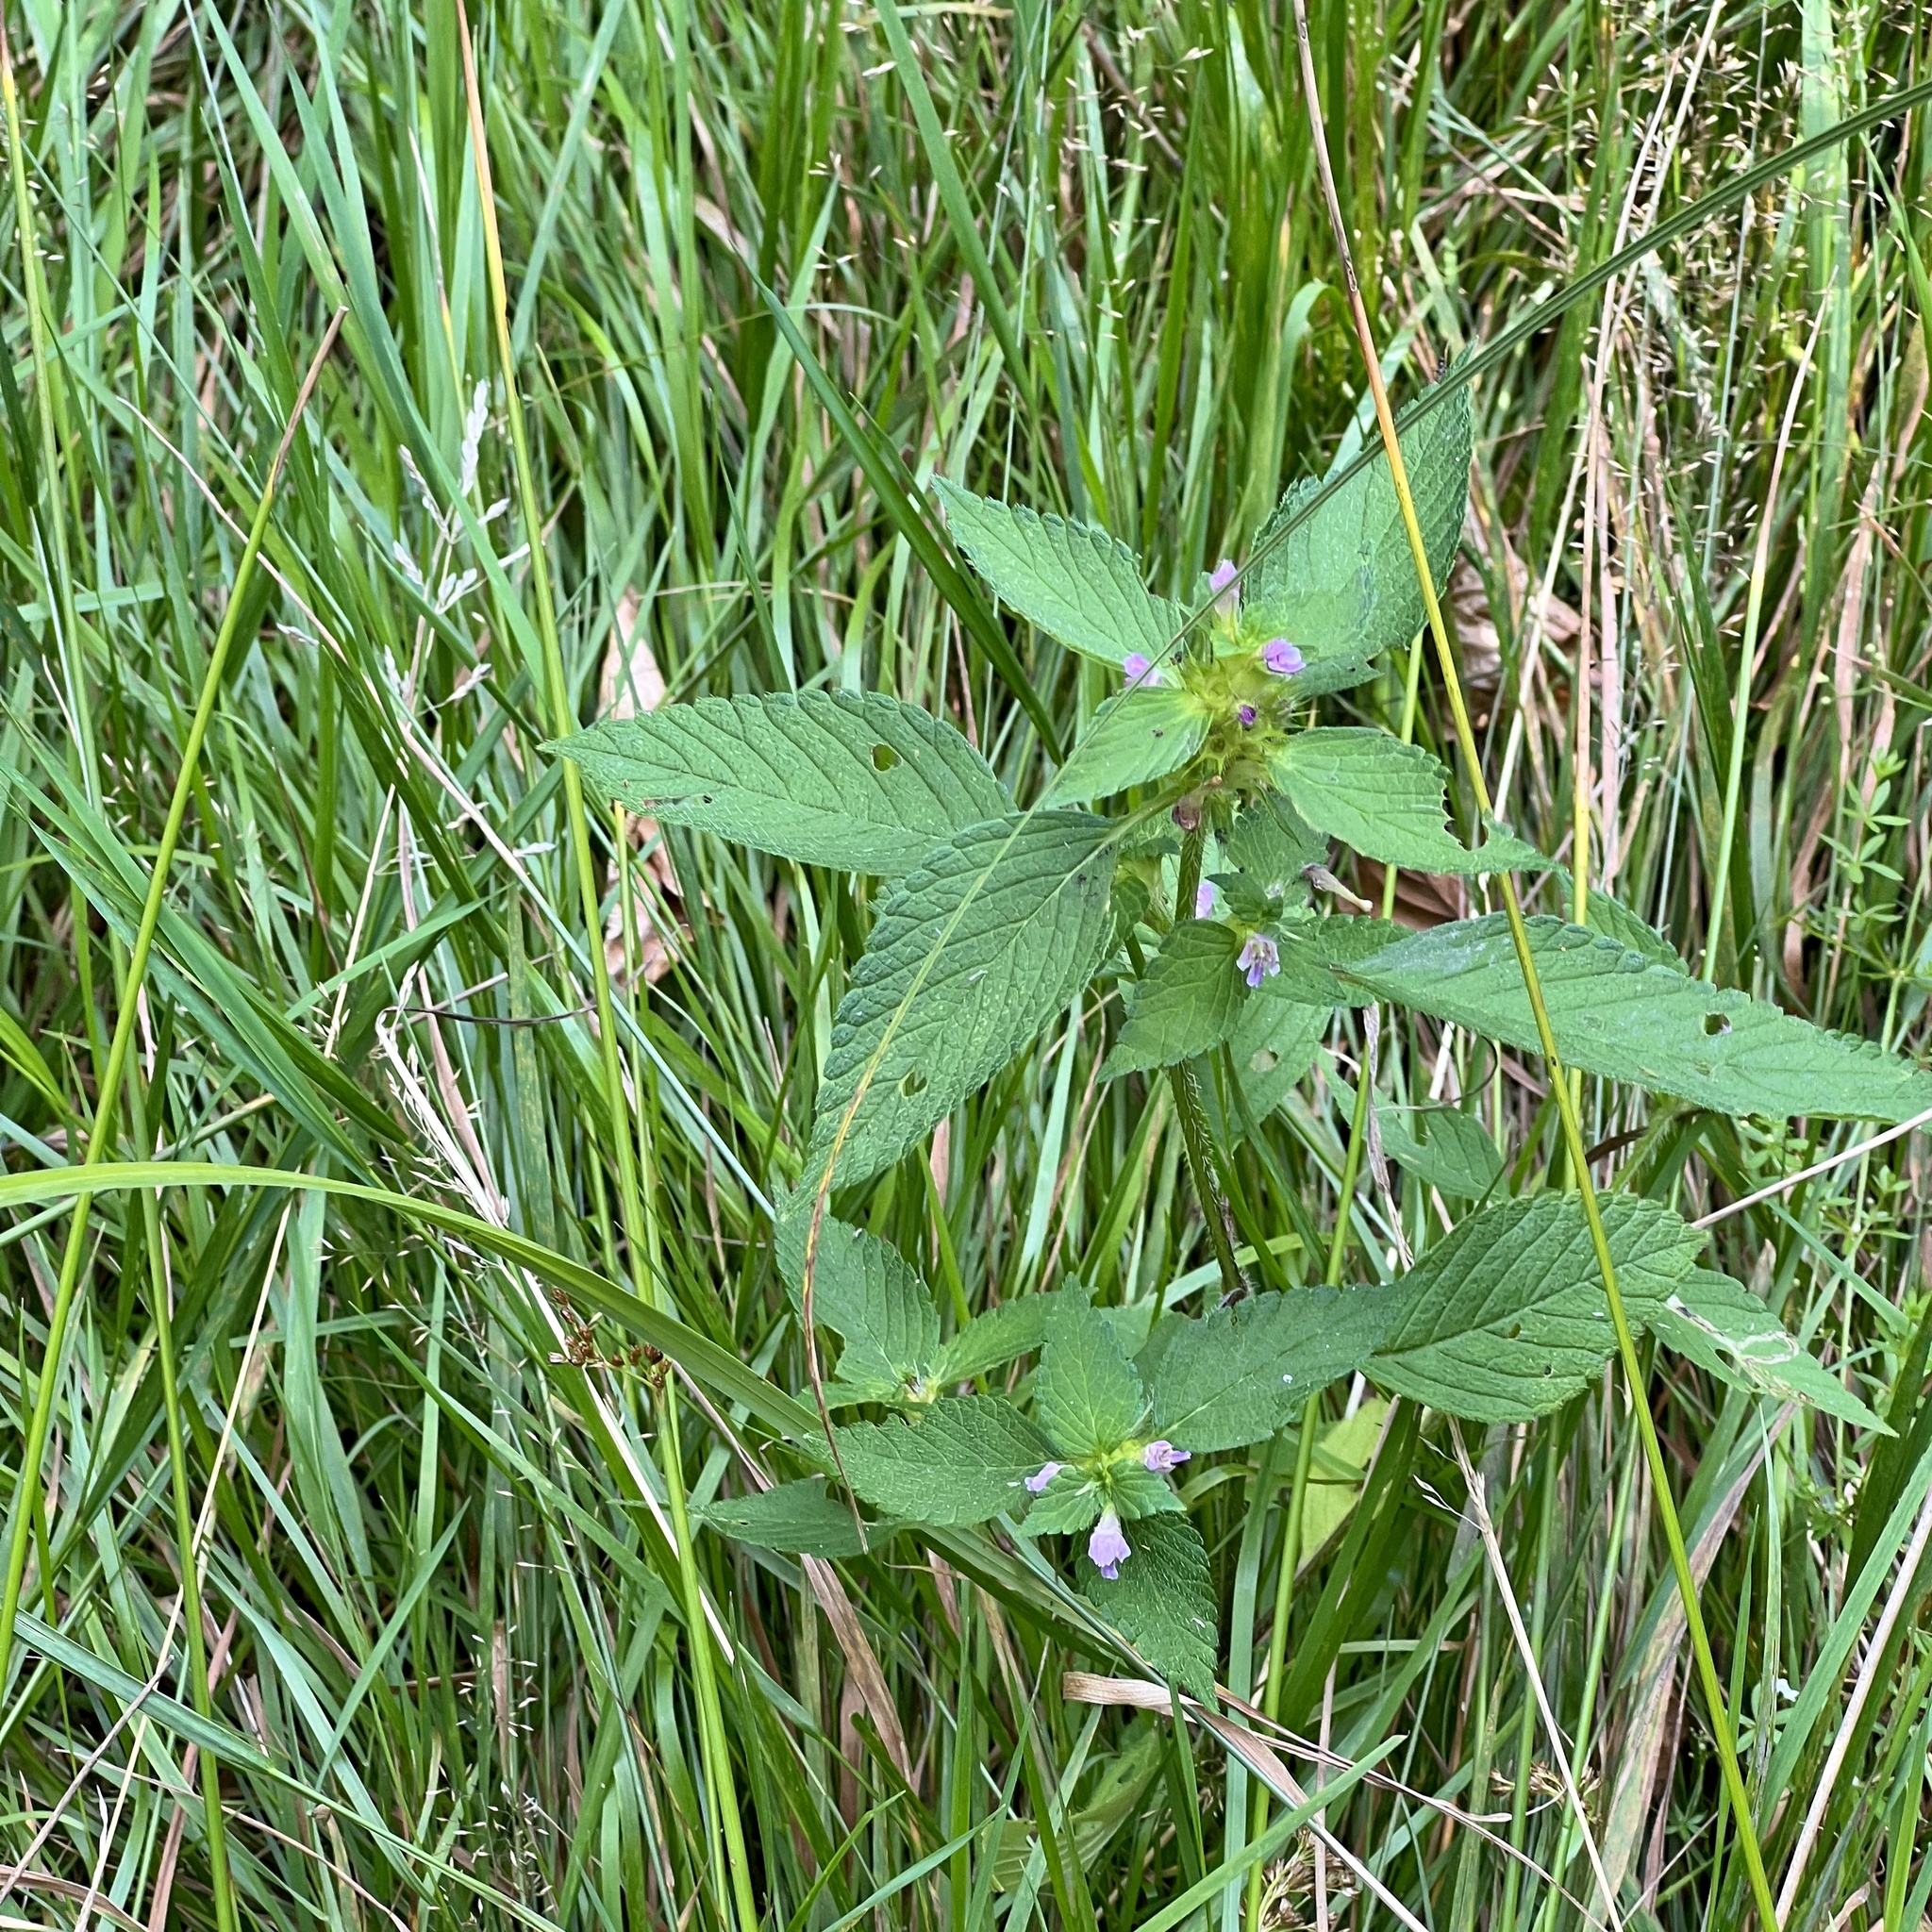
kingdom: Plantae
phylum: Tracheophyta
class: Magnoliopsida
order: Lamiales
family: Lamiaceae
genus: Galeopsis
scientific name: Galeopsis bifida
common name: Bifid hemp-nettle
